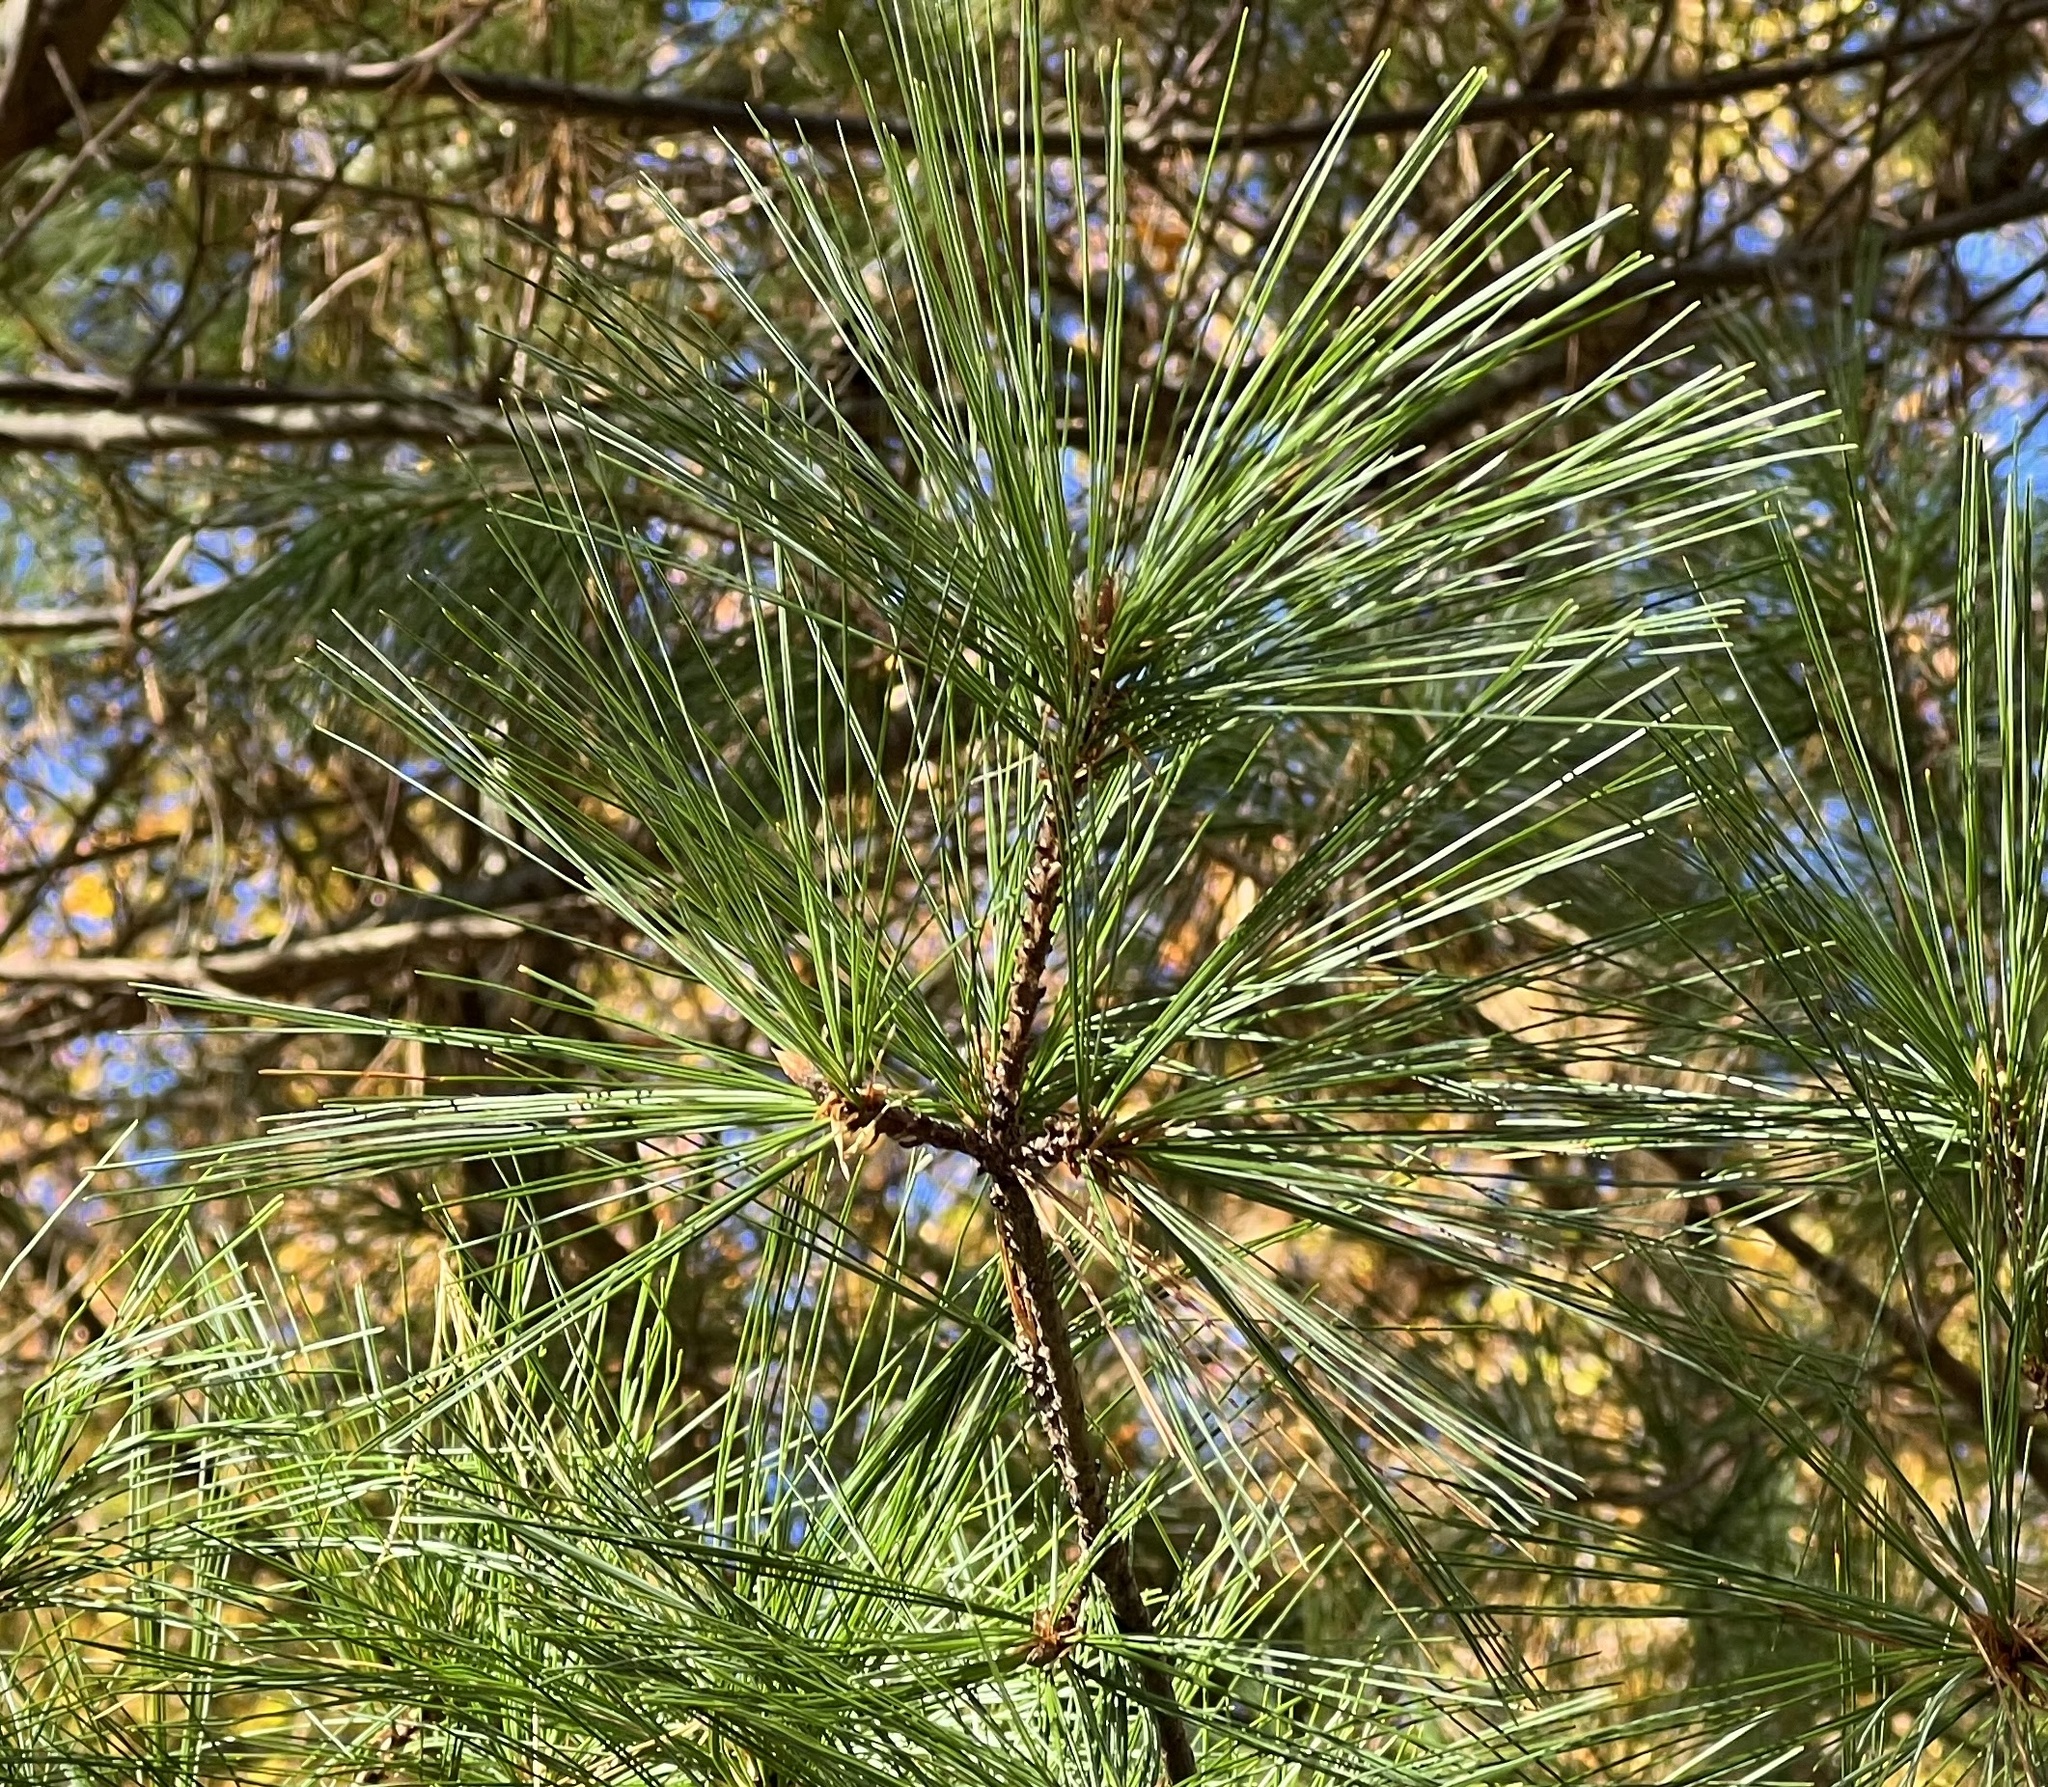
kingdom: Plantae
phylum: Tracheophyta
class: Pinopsida
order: Pinales
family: Pinaceae
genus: Pinus
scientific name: Pinus strobus
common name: Weymouth pine
